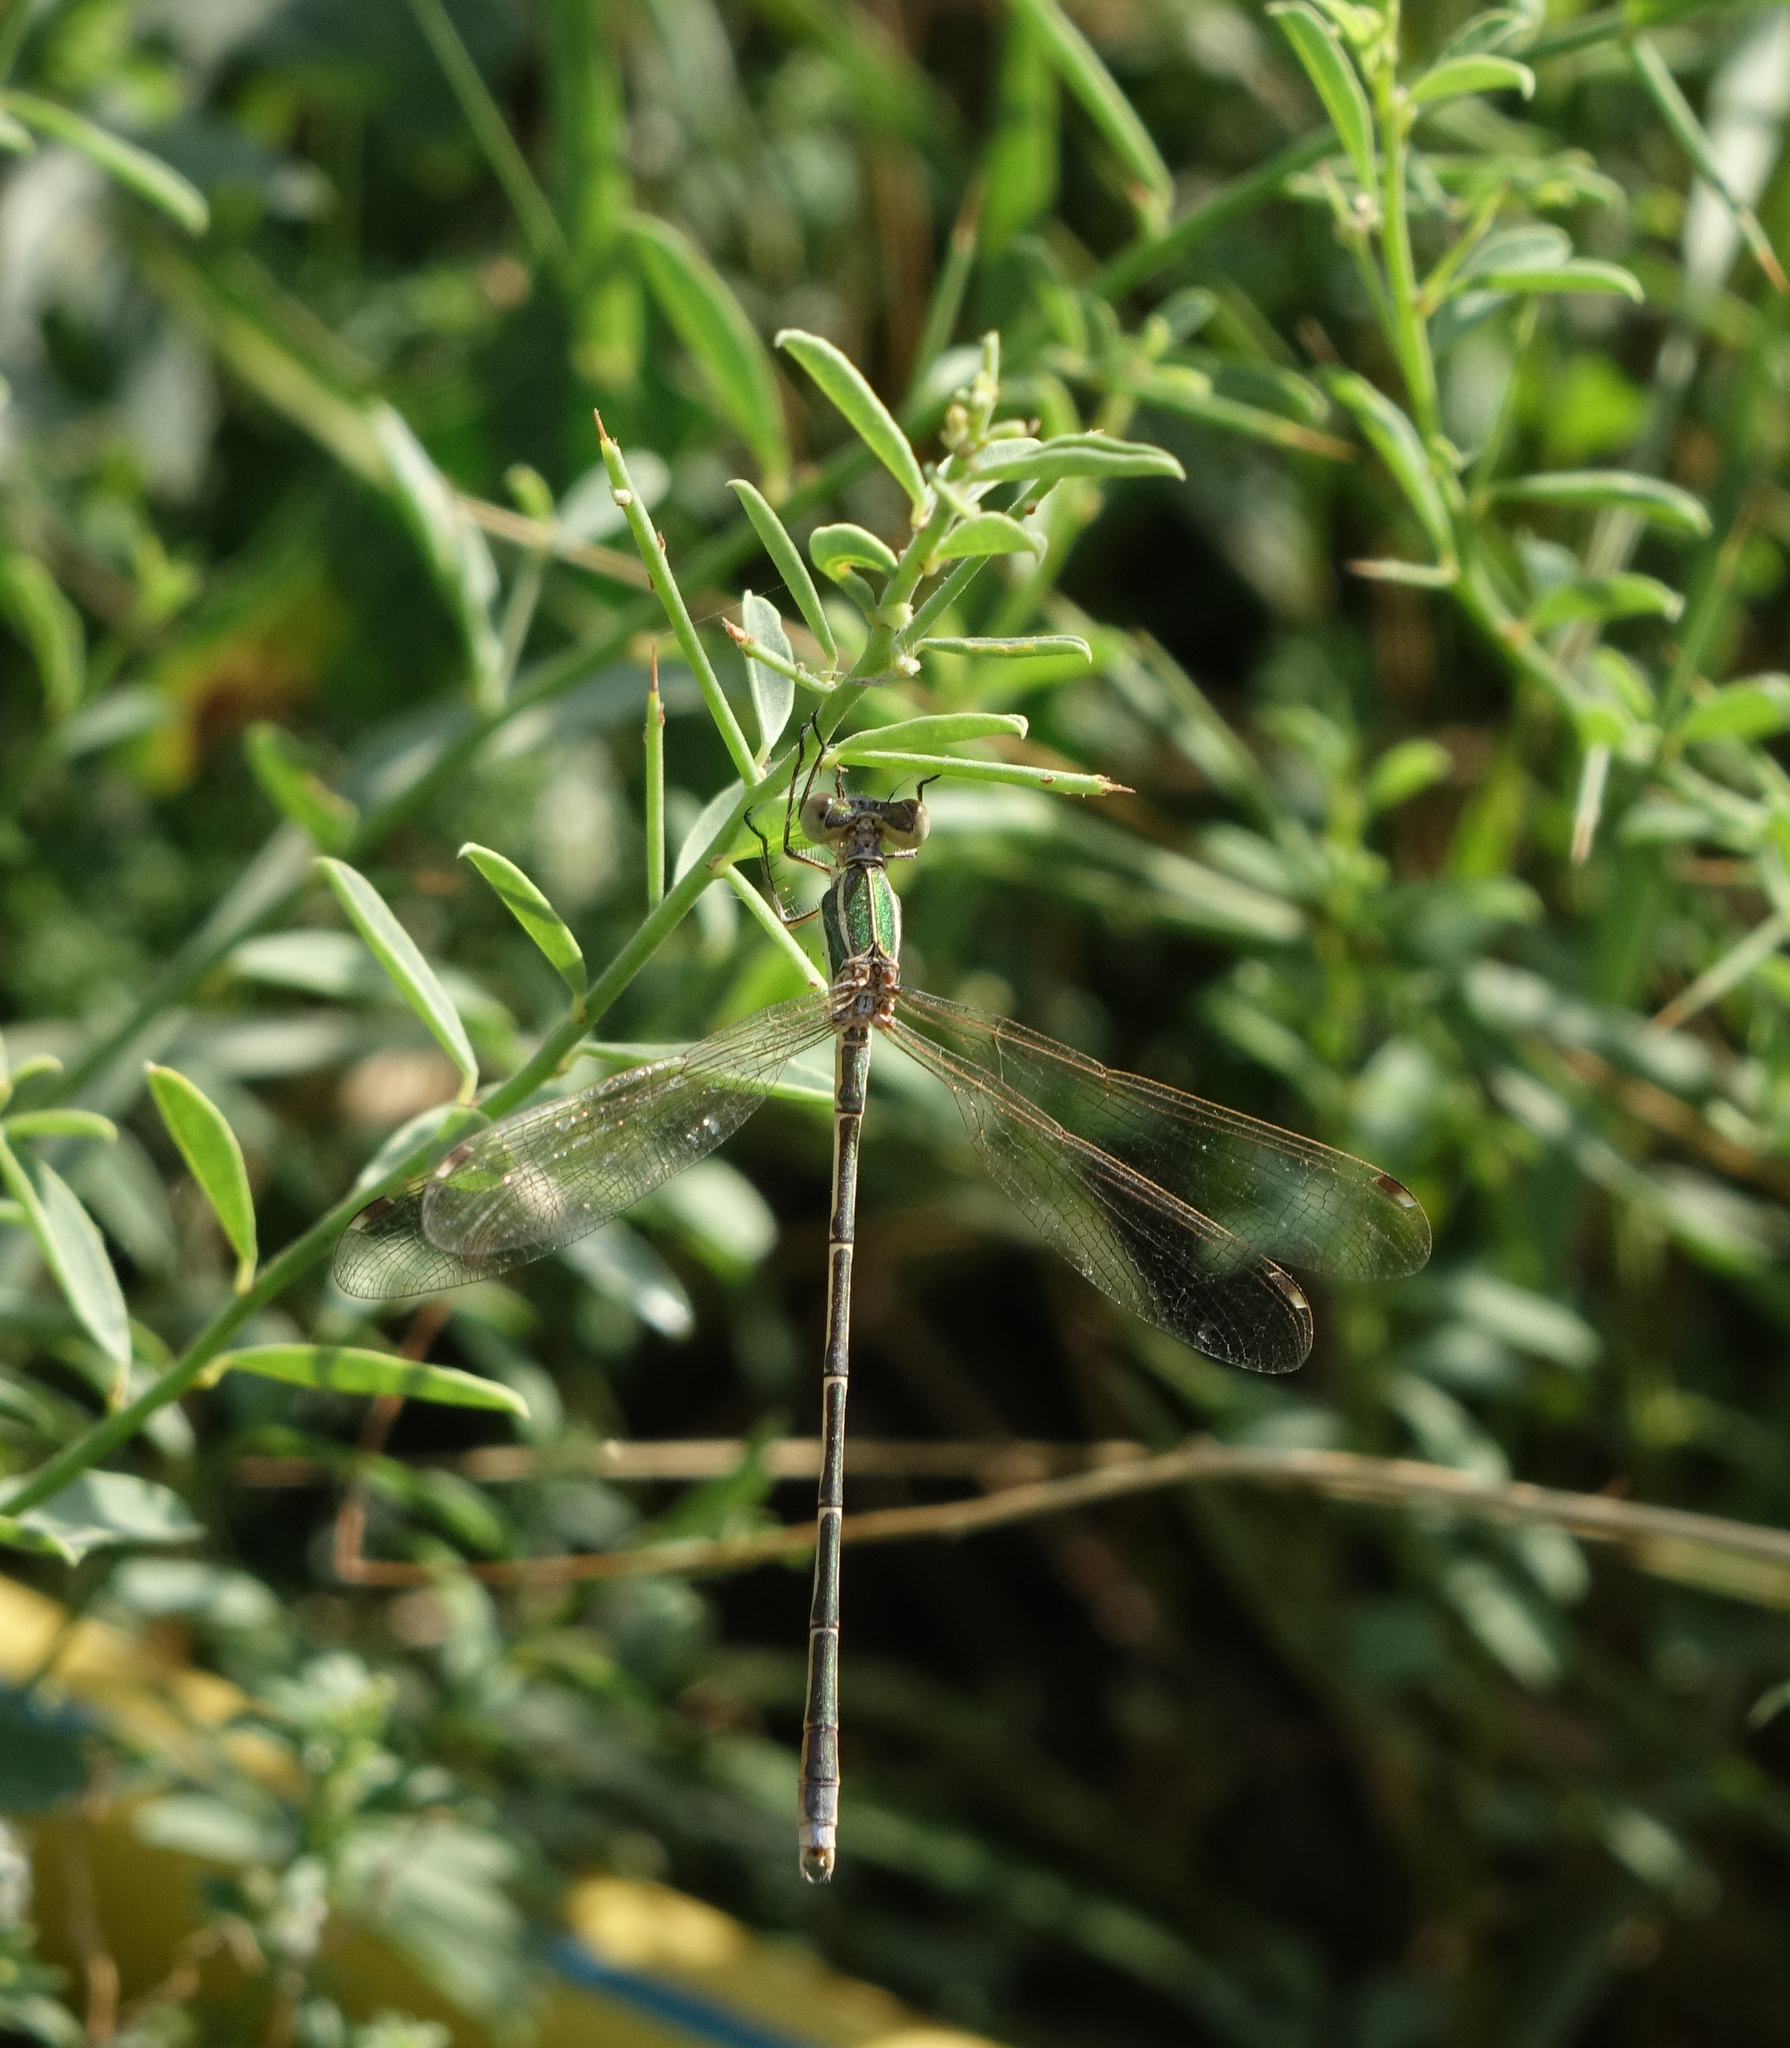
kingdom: Animalia
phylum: Arthropoda
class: Insecta
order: Odonata
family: Lestidae
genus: Lestes
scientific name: Lestes barbarus
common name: Migrant spreadwing
